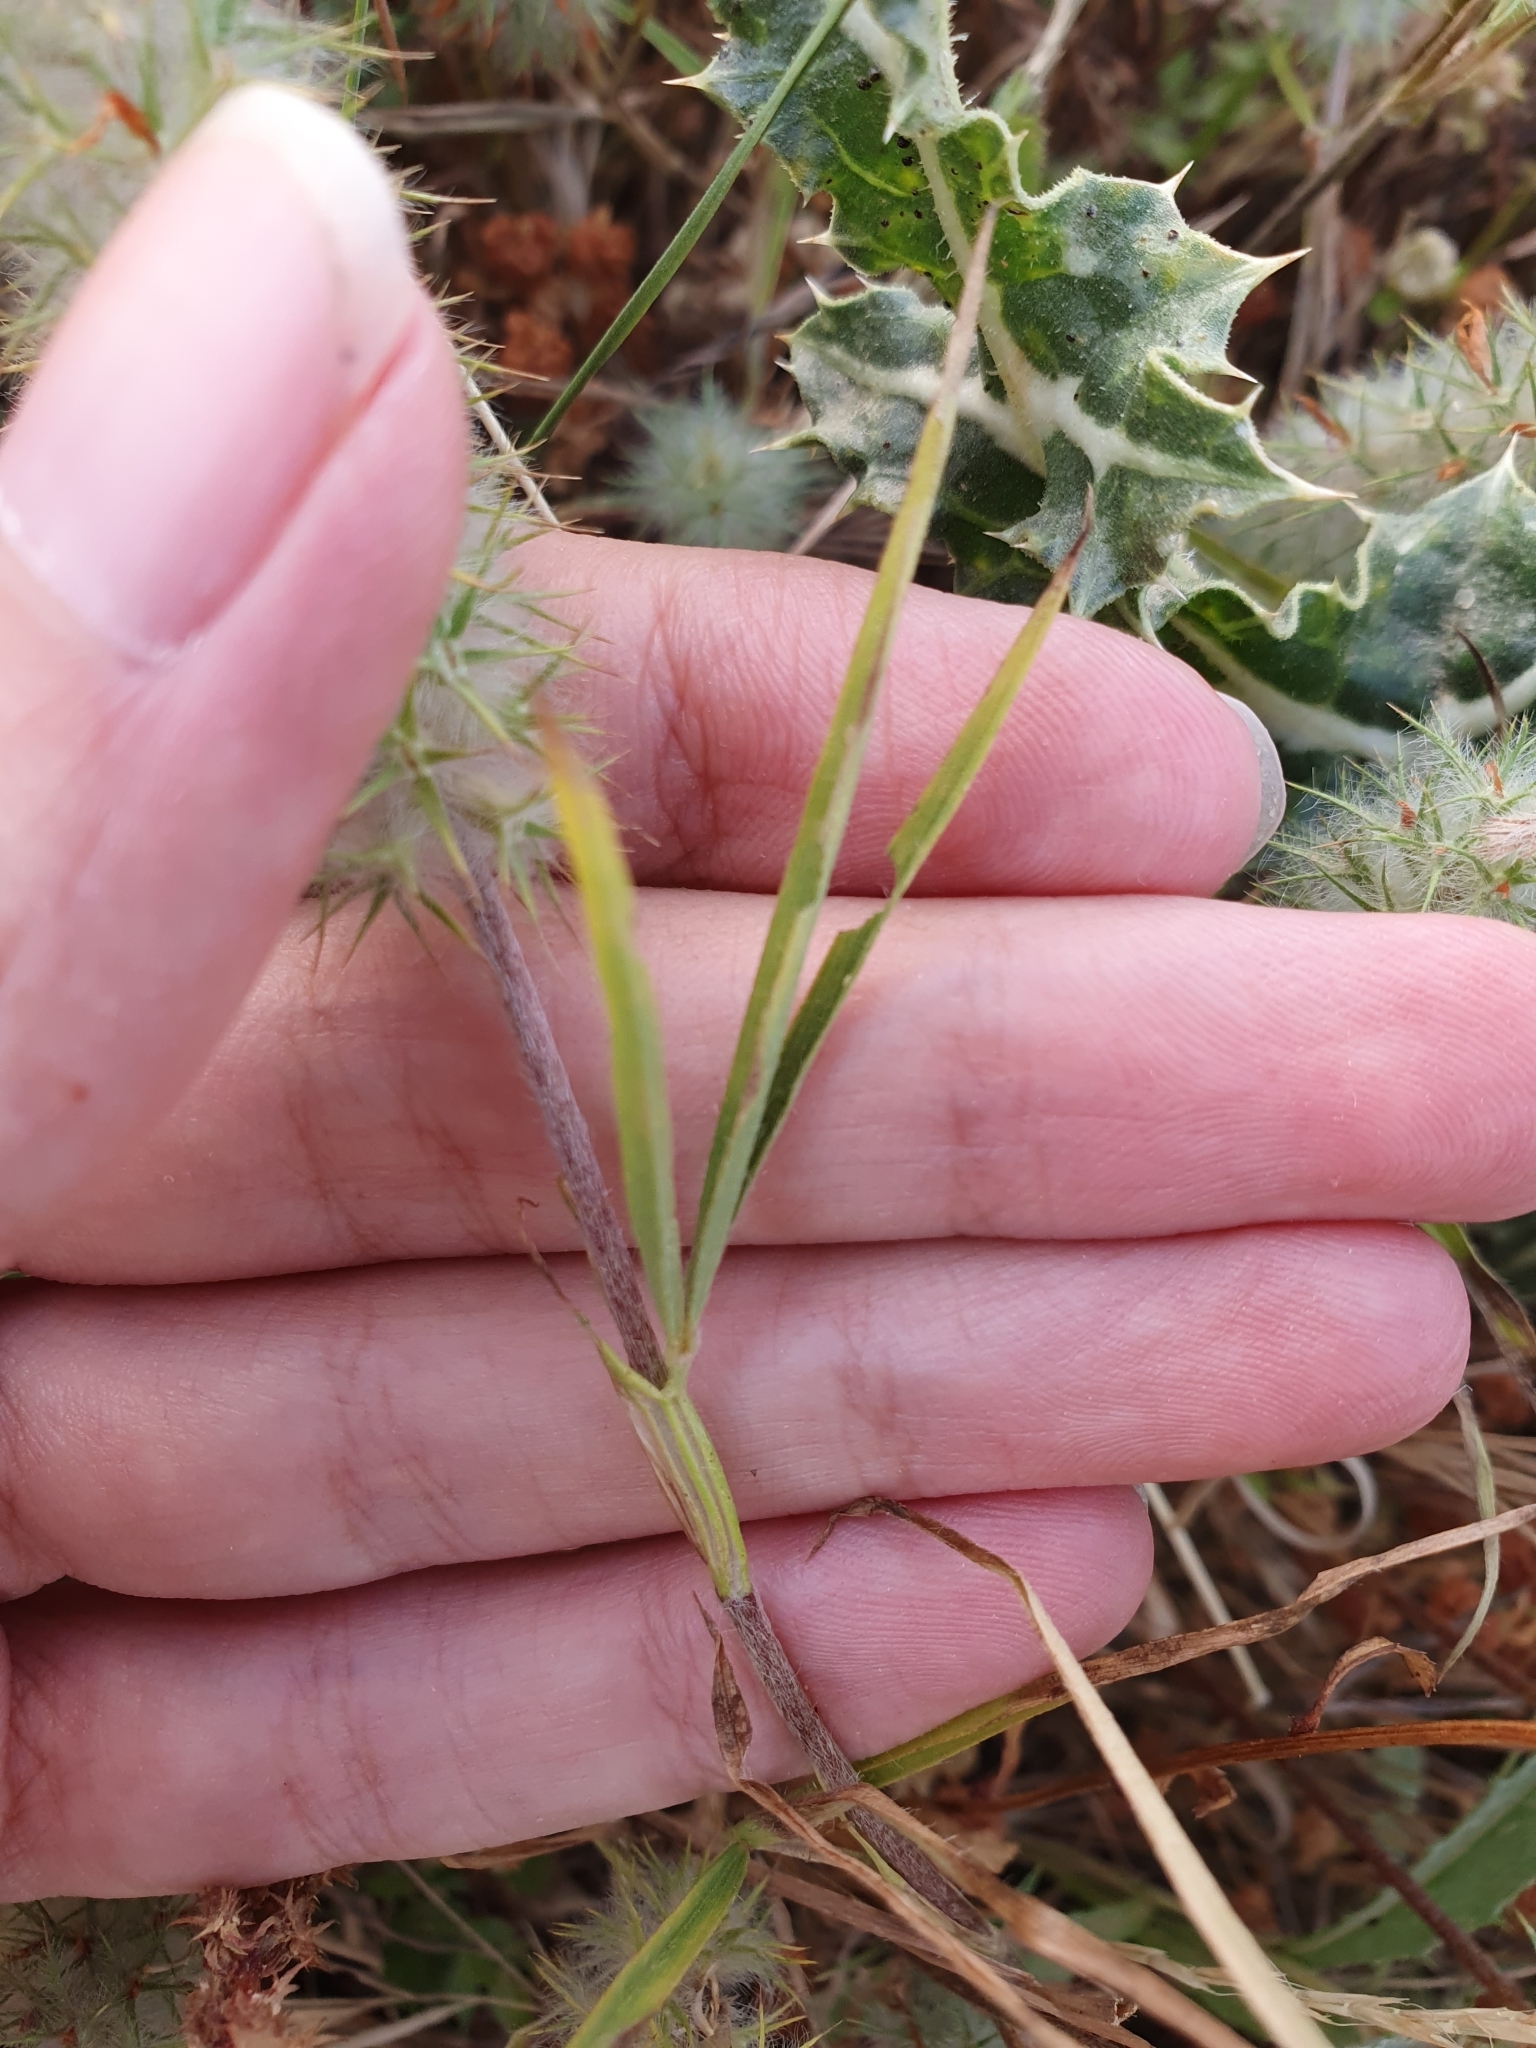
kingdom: Plantae
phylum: Tracheophyta
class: Magnoliopsida
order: Fabales
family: Fabaceae
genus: Trifolium
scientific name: Trifolium angustifolium
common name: Narrow clover
